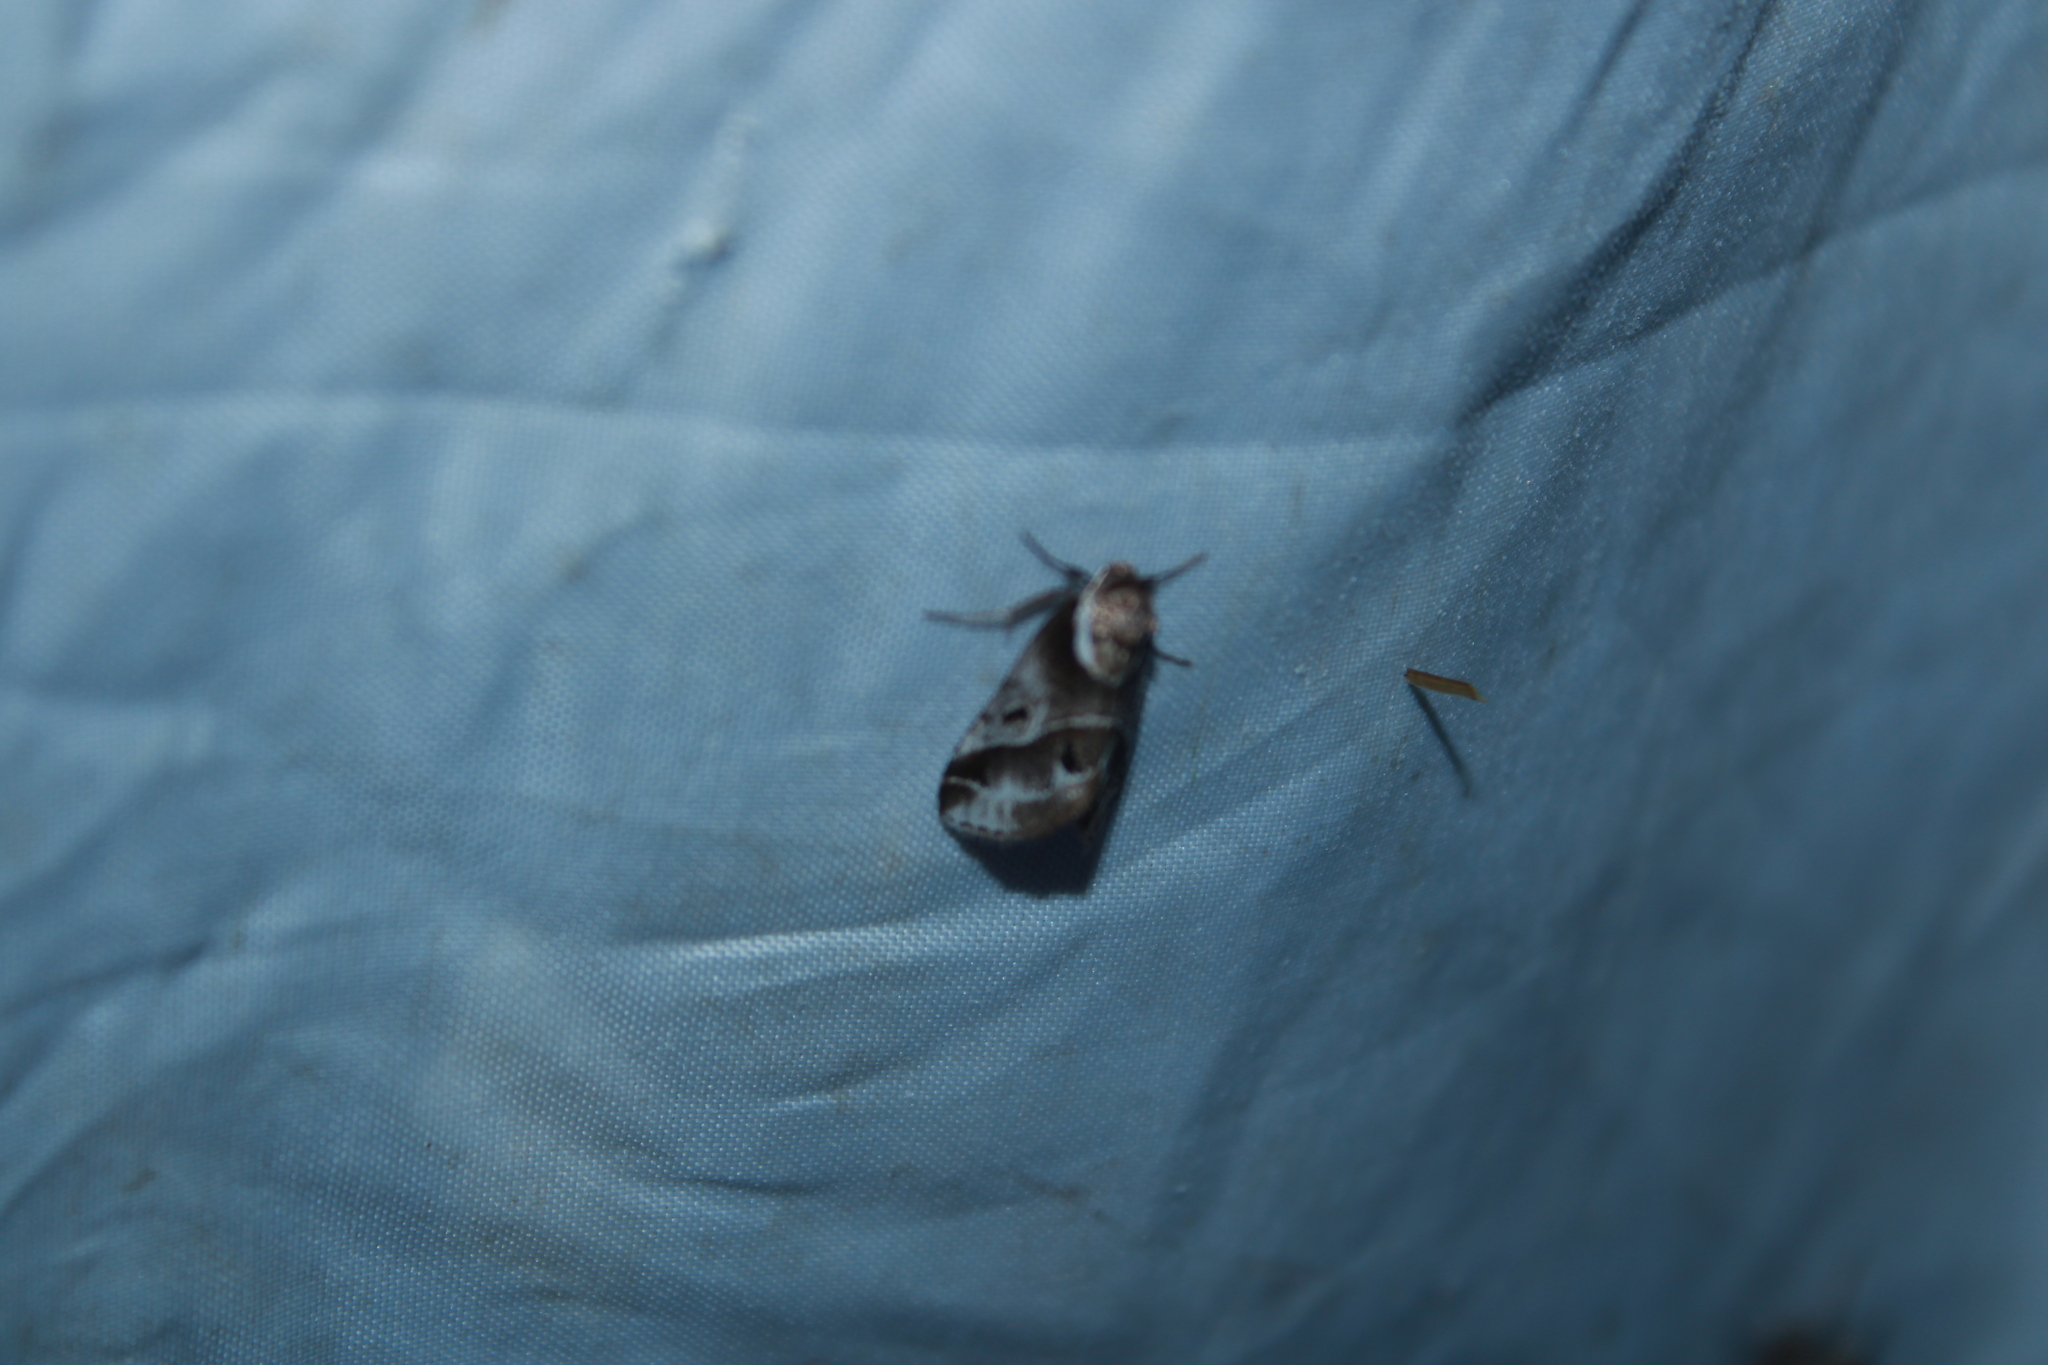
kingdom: Animalia
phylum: Arthropoda
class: Insecta
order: Lepidoptera
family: Nolidae
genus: Baileya
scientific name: Baileya doubledayi
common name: Doubleday's baileya moth
